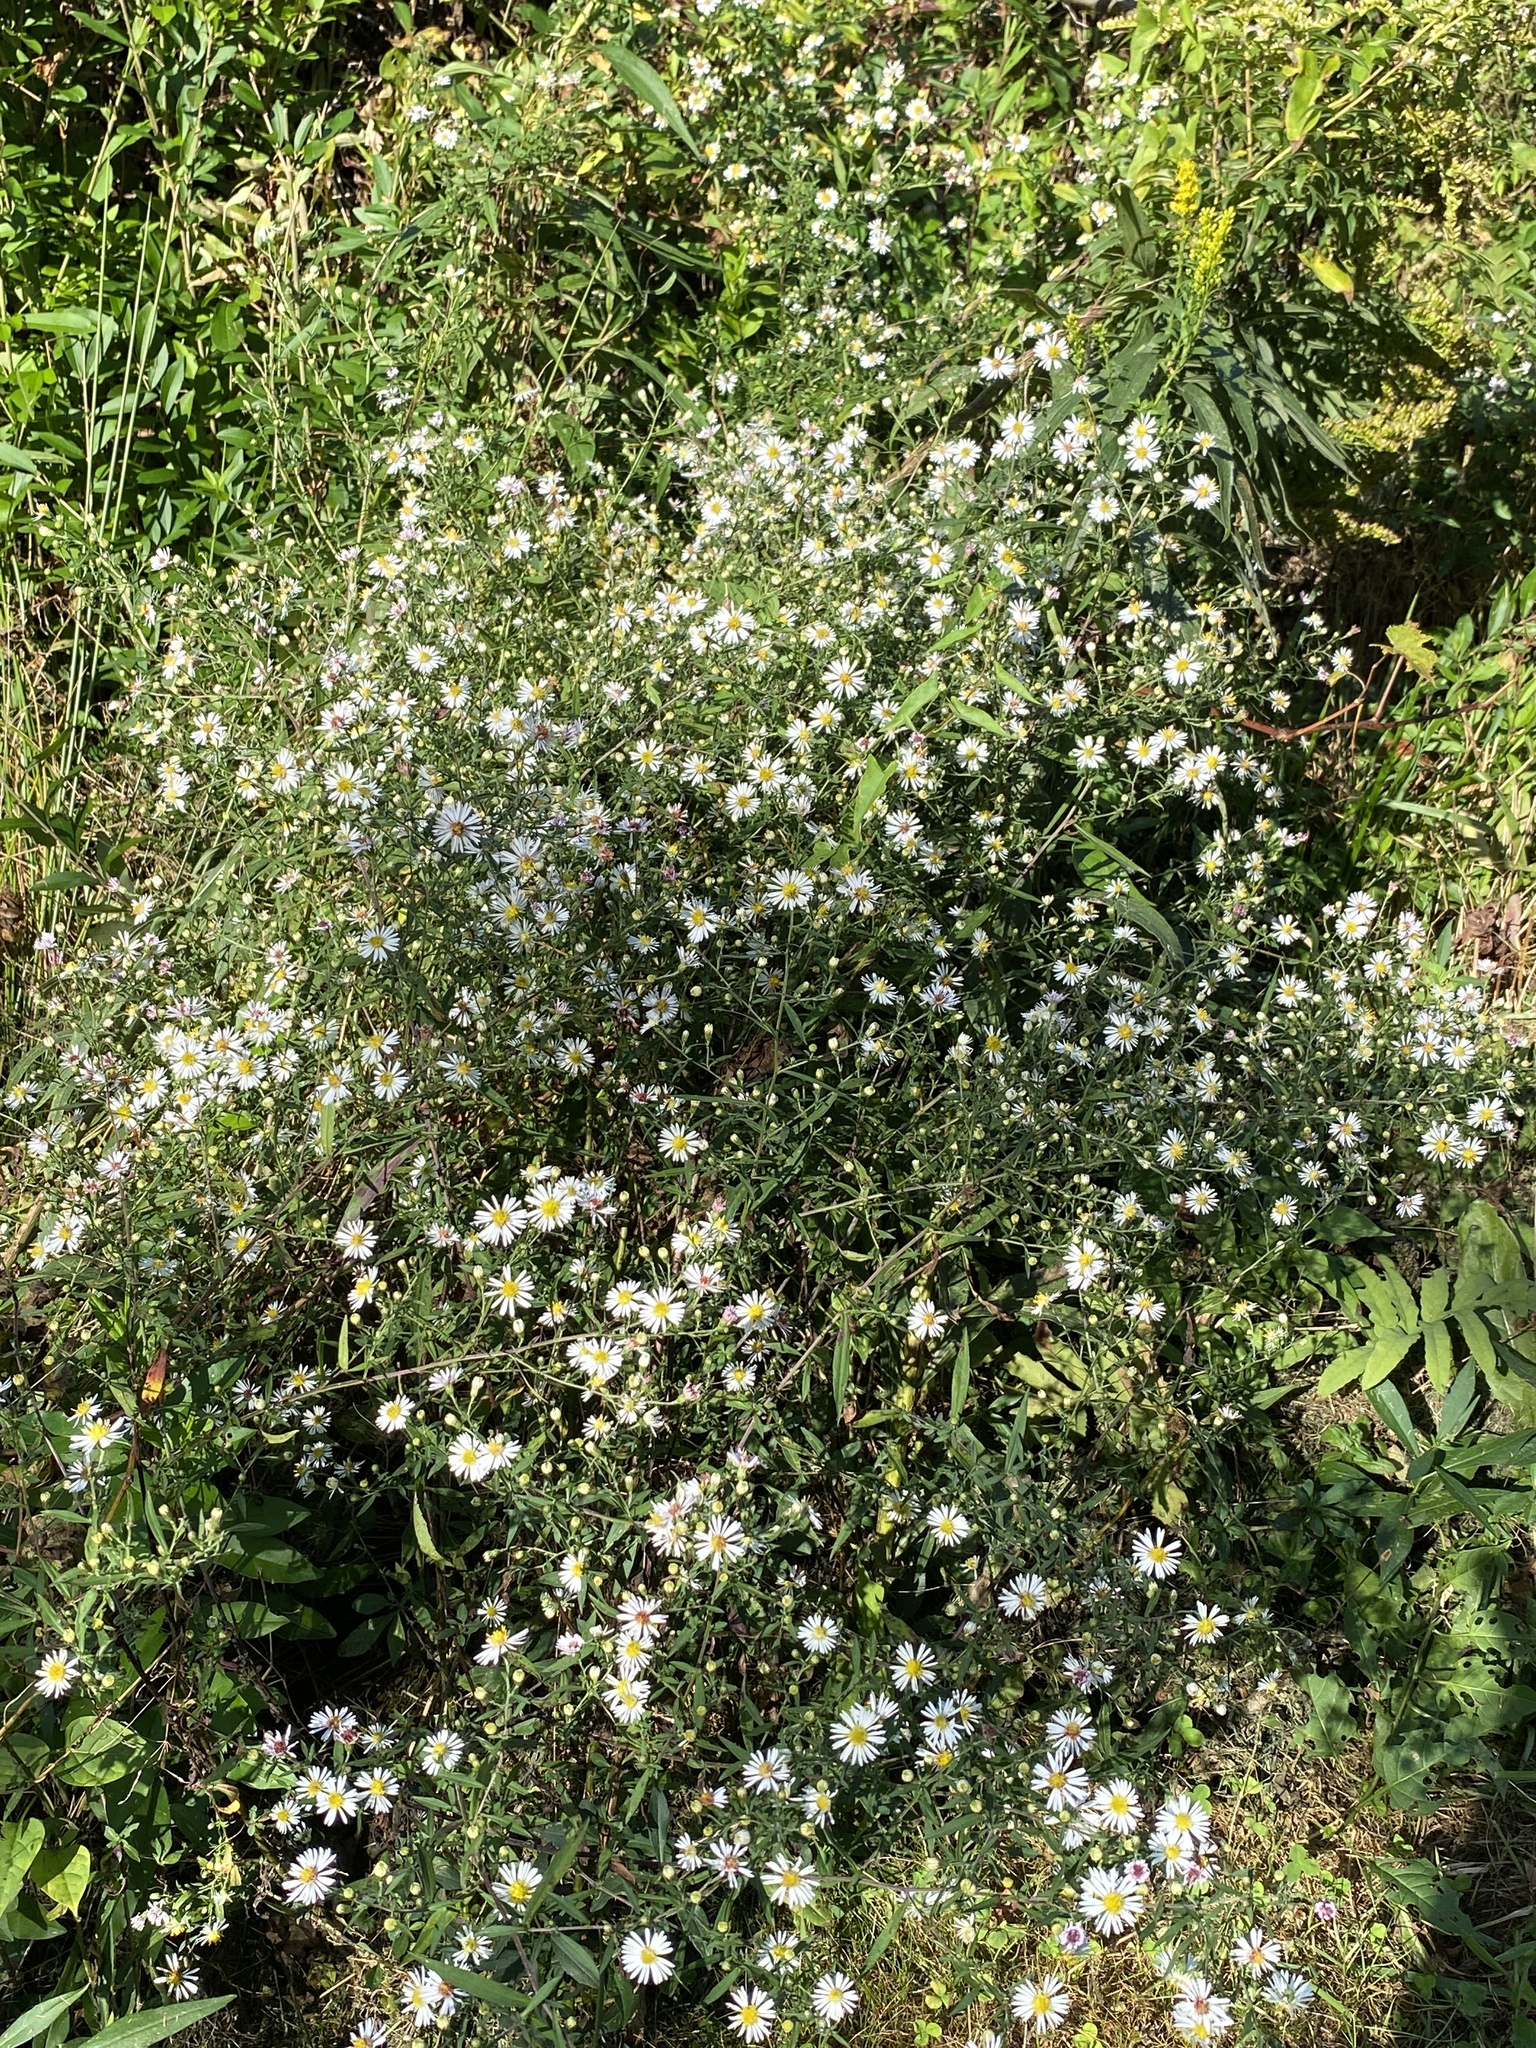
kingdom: Plantae
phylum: Tracheophyta
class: Magnoliopsida
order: Asterales
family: Asteraceae
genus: Symphyotrichum
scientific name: Symphyotrichum lanceolatum
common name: Panicled aster
